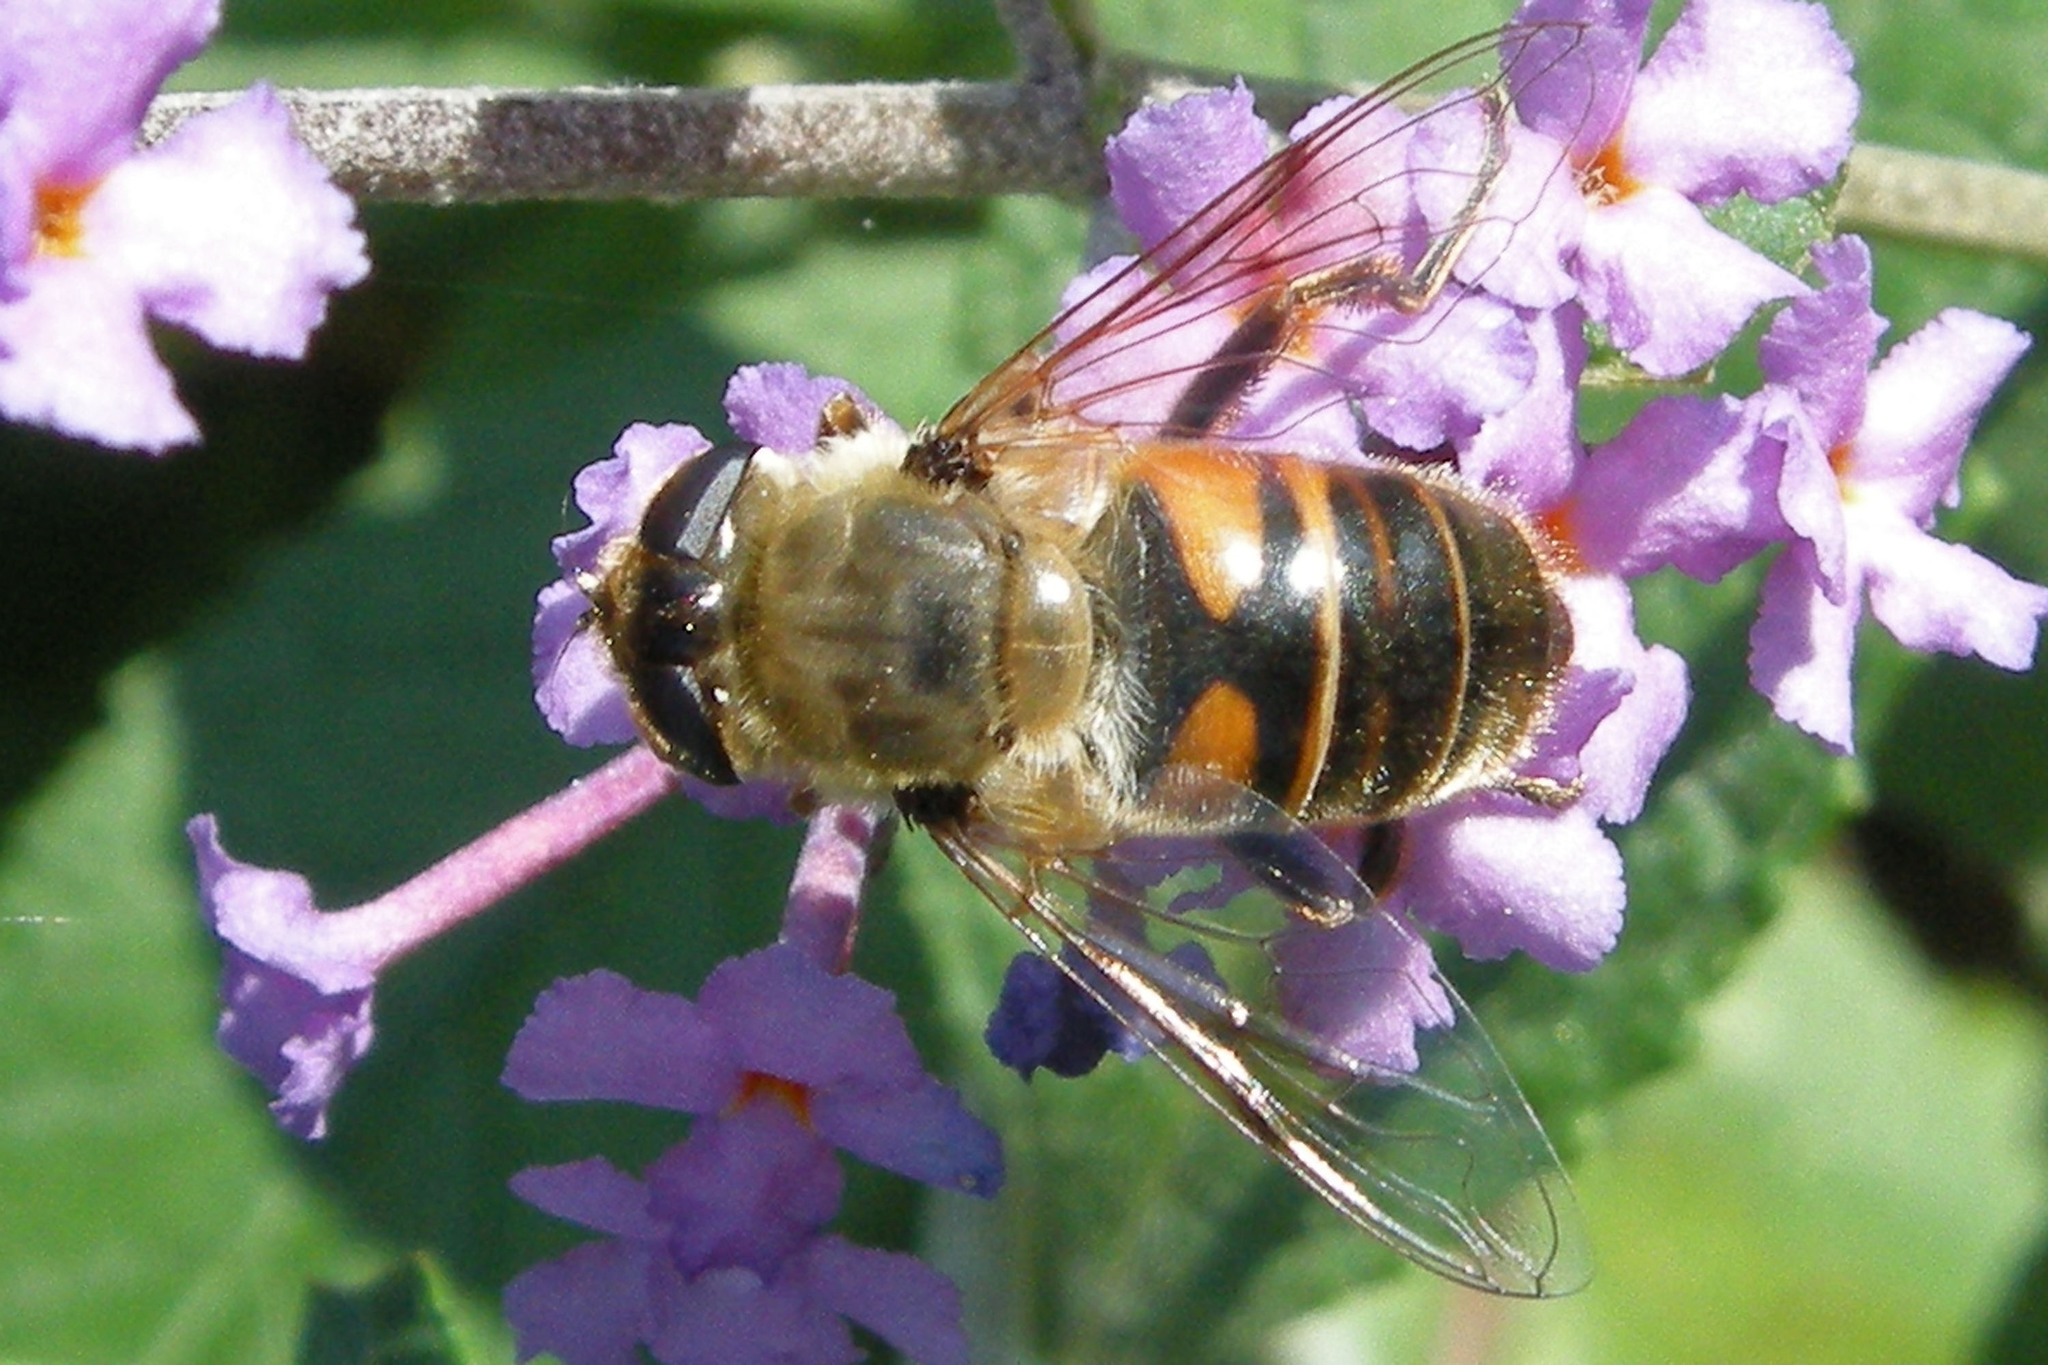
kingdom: Animalia
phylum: Arthropoda
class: Insecta
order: Diptera
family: Syrphidae
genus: Eristalis
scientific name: Eristalis tenax
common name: Drone fly
